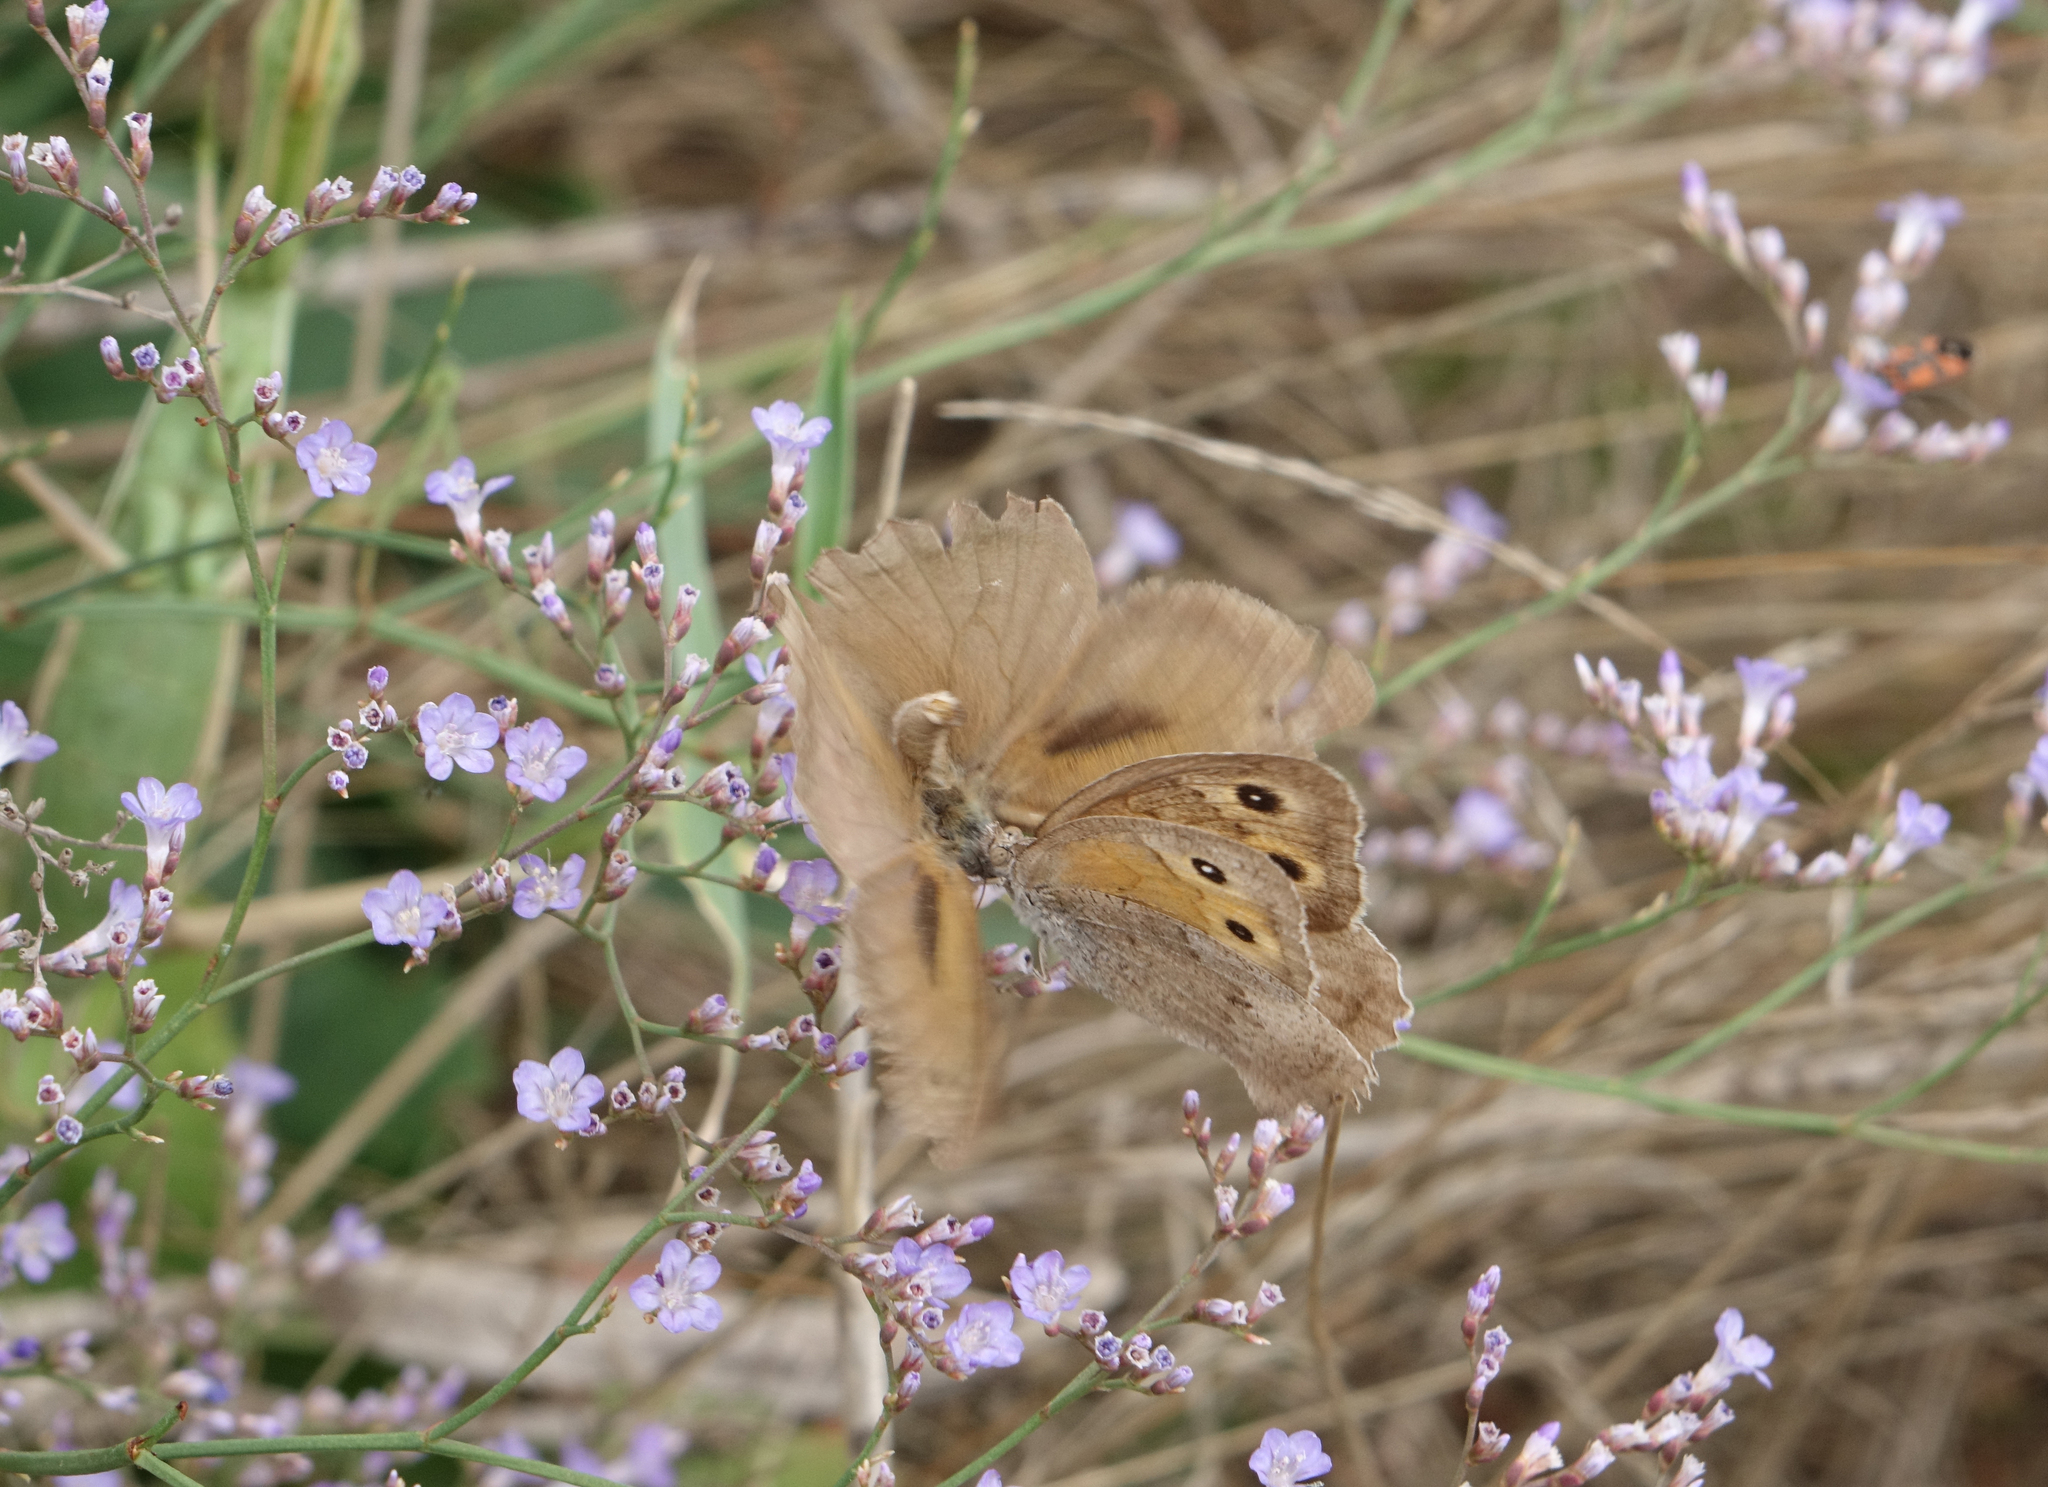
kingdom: Animalia
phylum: Arthropoda
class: Insecta
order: Lepidoptera
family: Nymphalidae
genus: Hyponephele
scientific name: Hyponephele lupinus
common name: Oriental meadow brown
